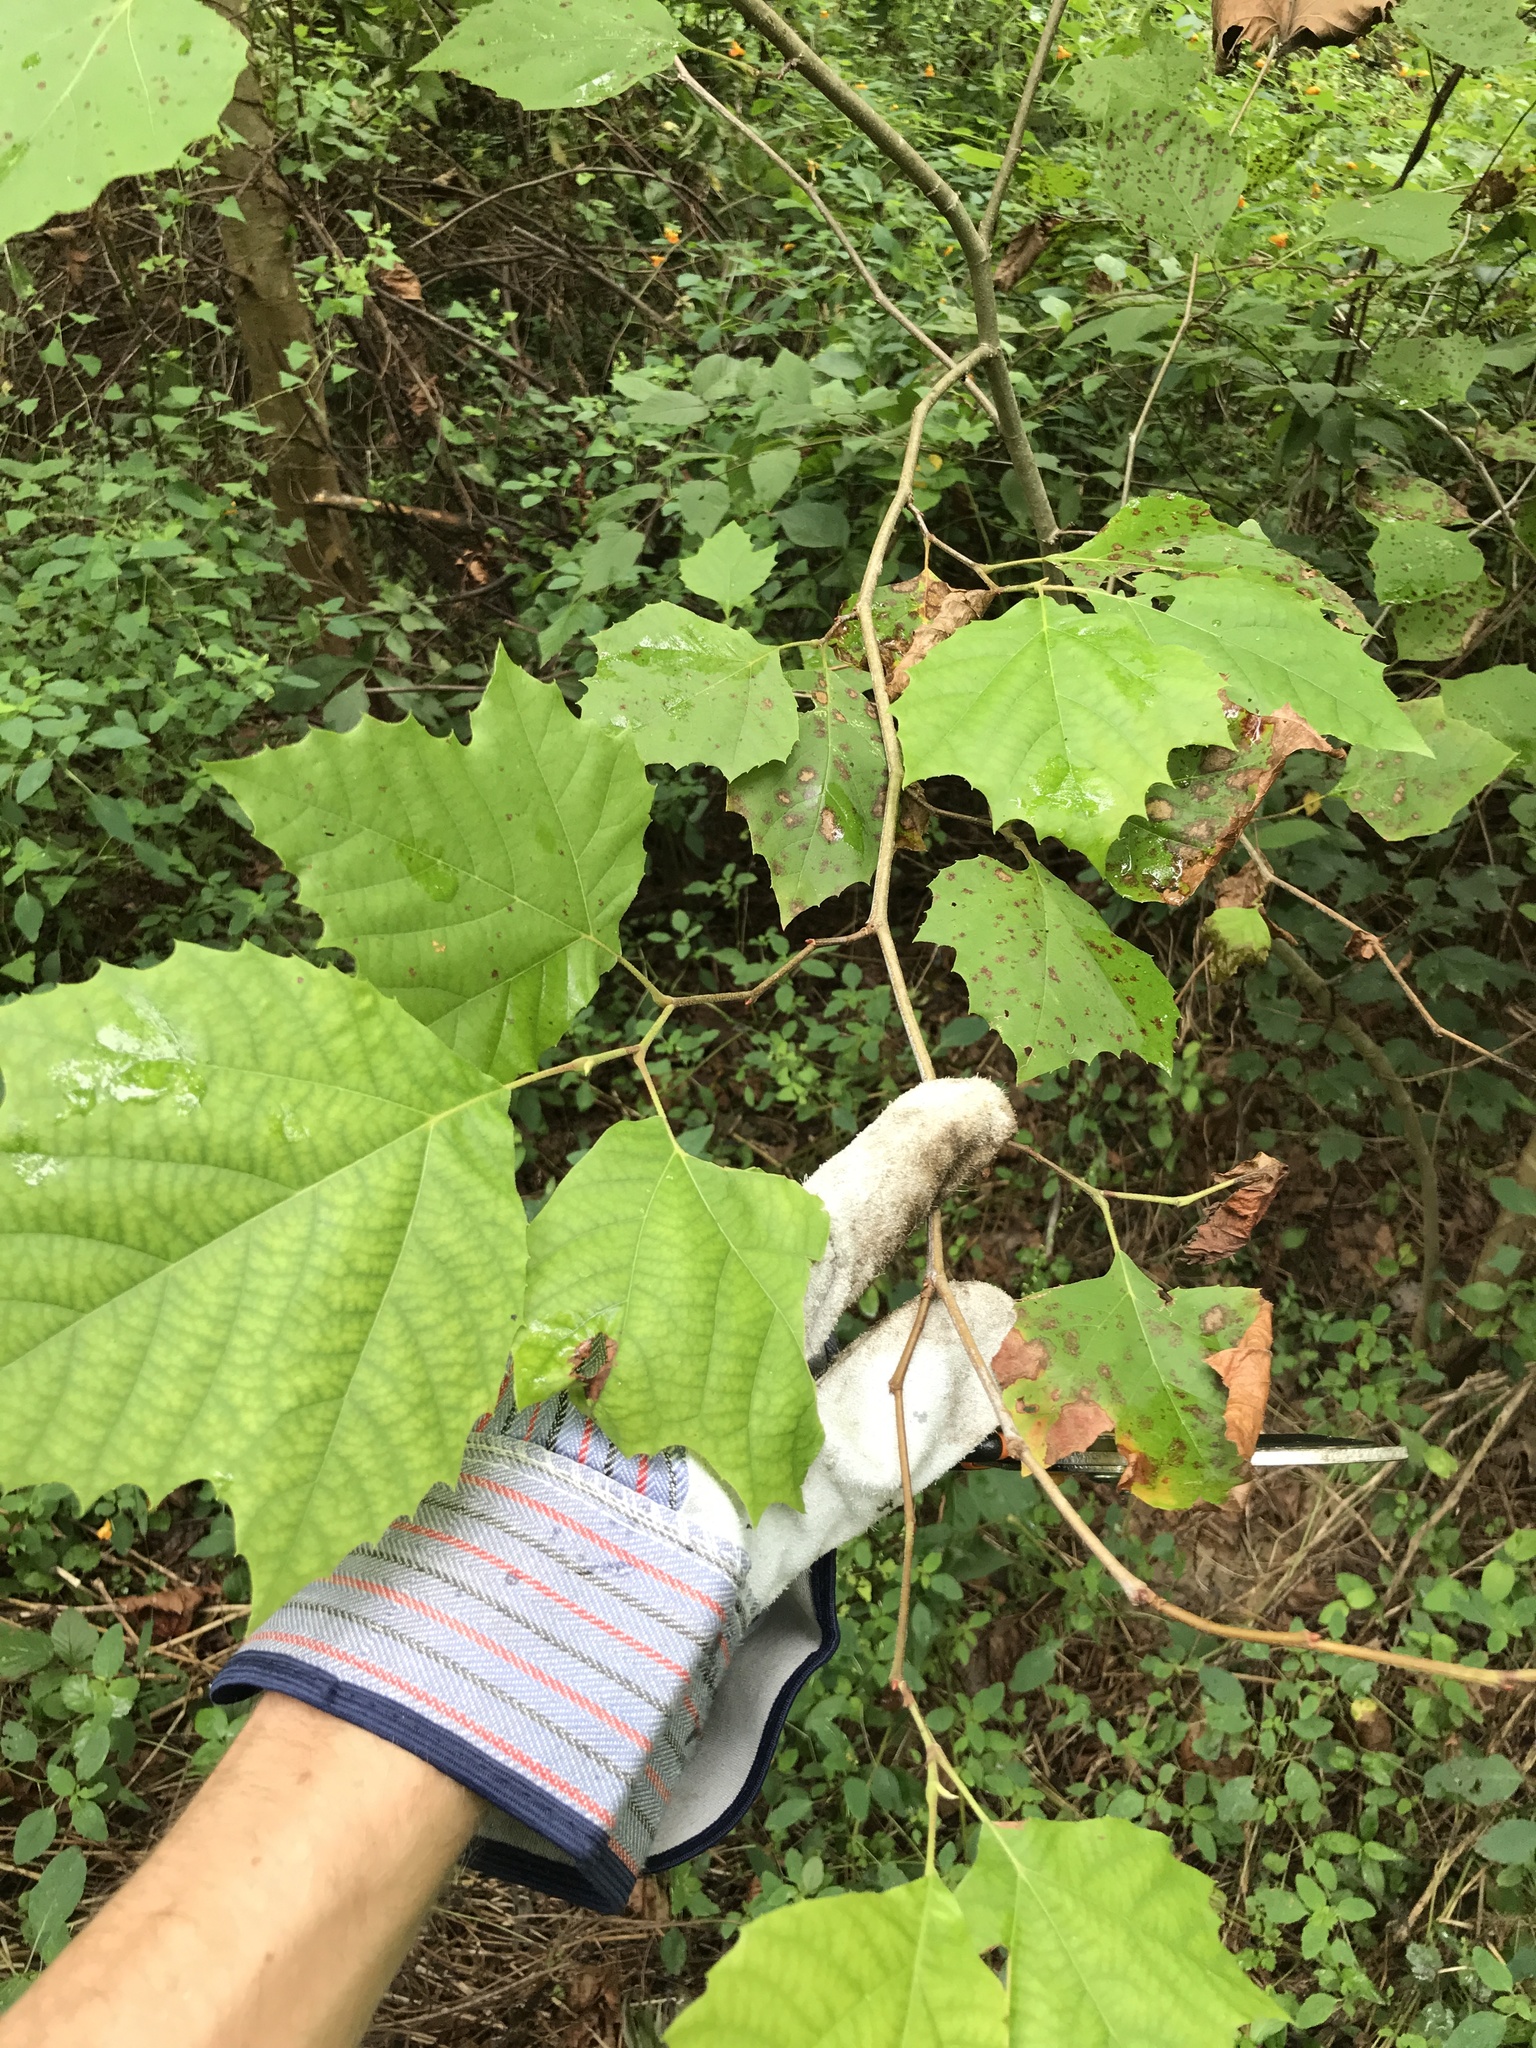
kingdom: Plantae
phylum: Tracheophyta
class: Magnoliopsida
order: Proteales
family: Platanaceae
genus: Platanus
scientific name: Platanus occidentalis
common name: American sycamore
